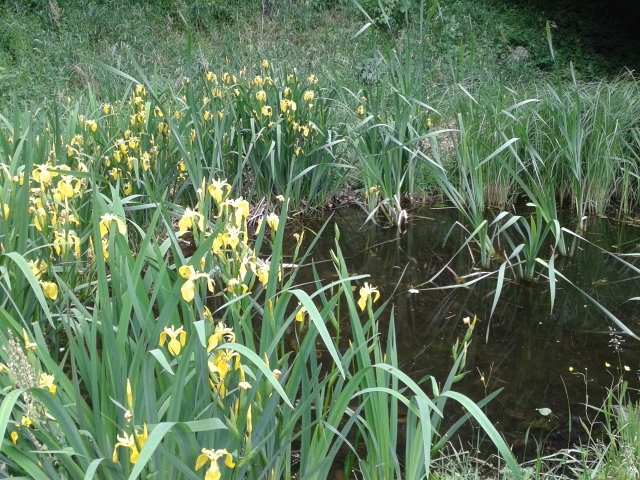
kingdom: Plantae
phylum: Tracheophyta
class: Liliopsida
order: Asparagales
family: Iridaceae
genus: Iris
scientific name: Iris pseudacorus
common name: Yellow flag
